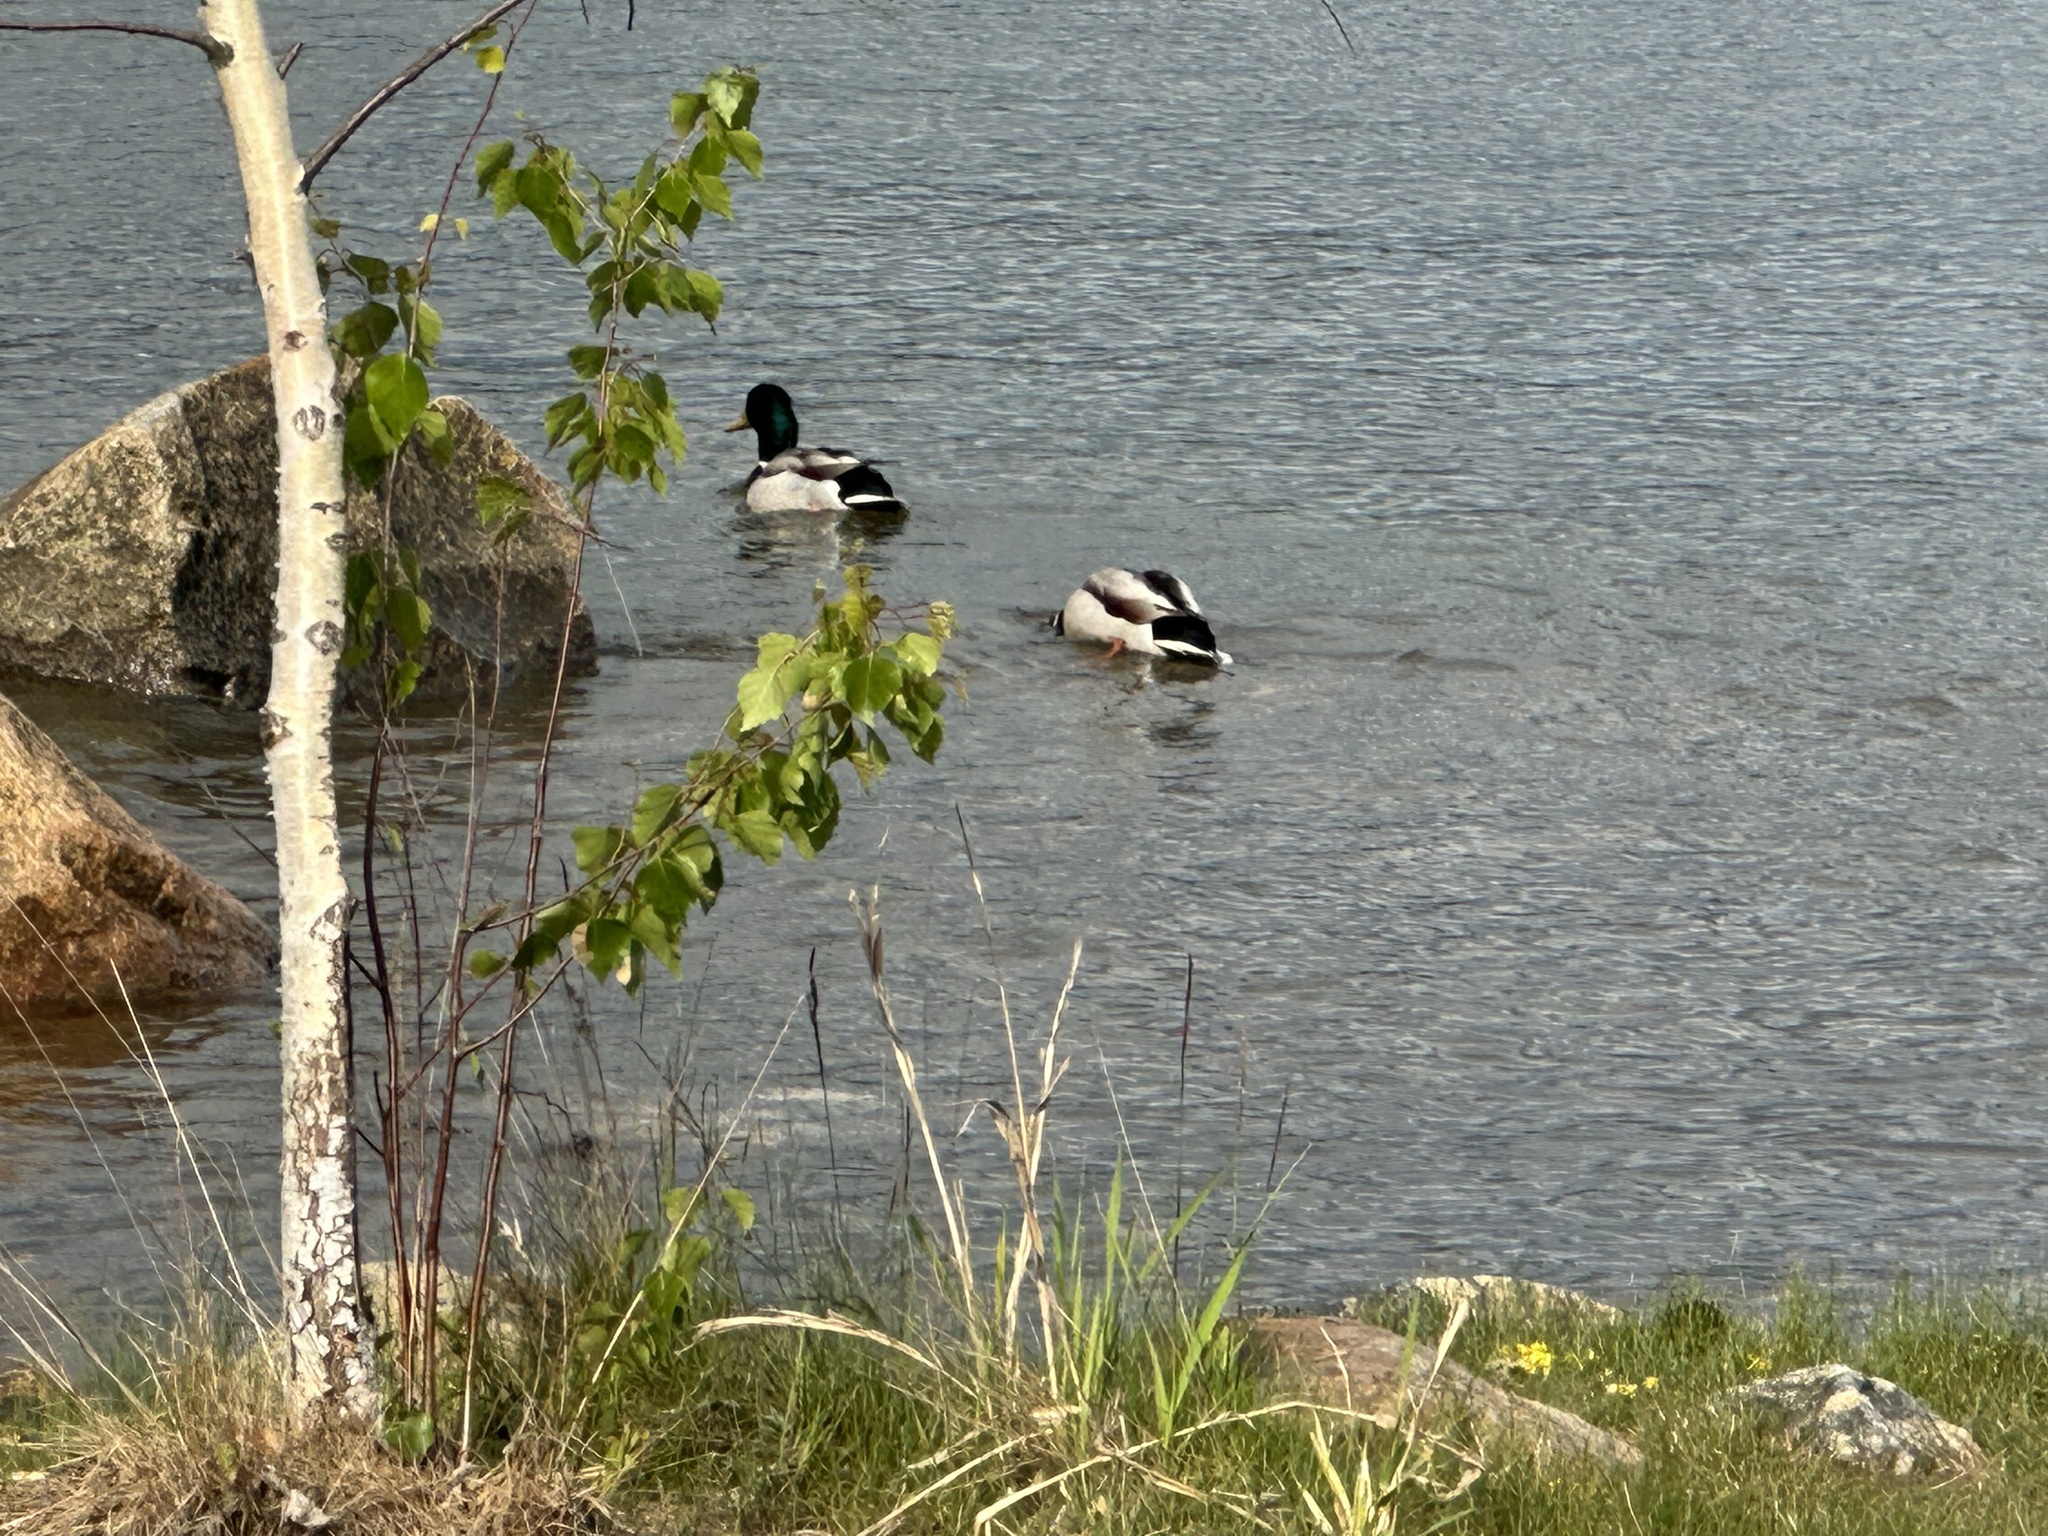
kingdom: Animalia
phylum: Chordata
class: Aves
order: Anseriformes
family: Anatidae
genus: Anas
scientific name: Anas platyrhynchos
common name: Mallard
